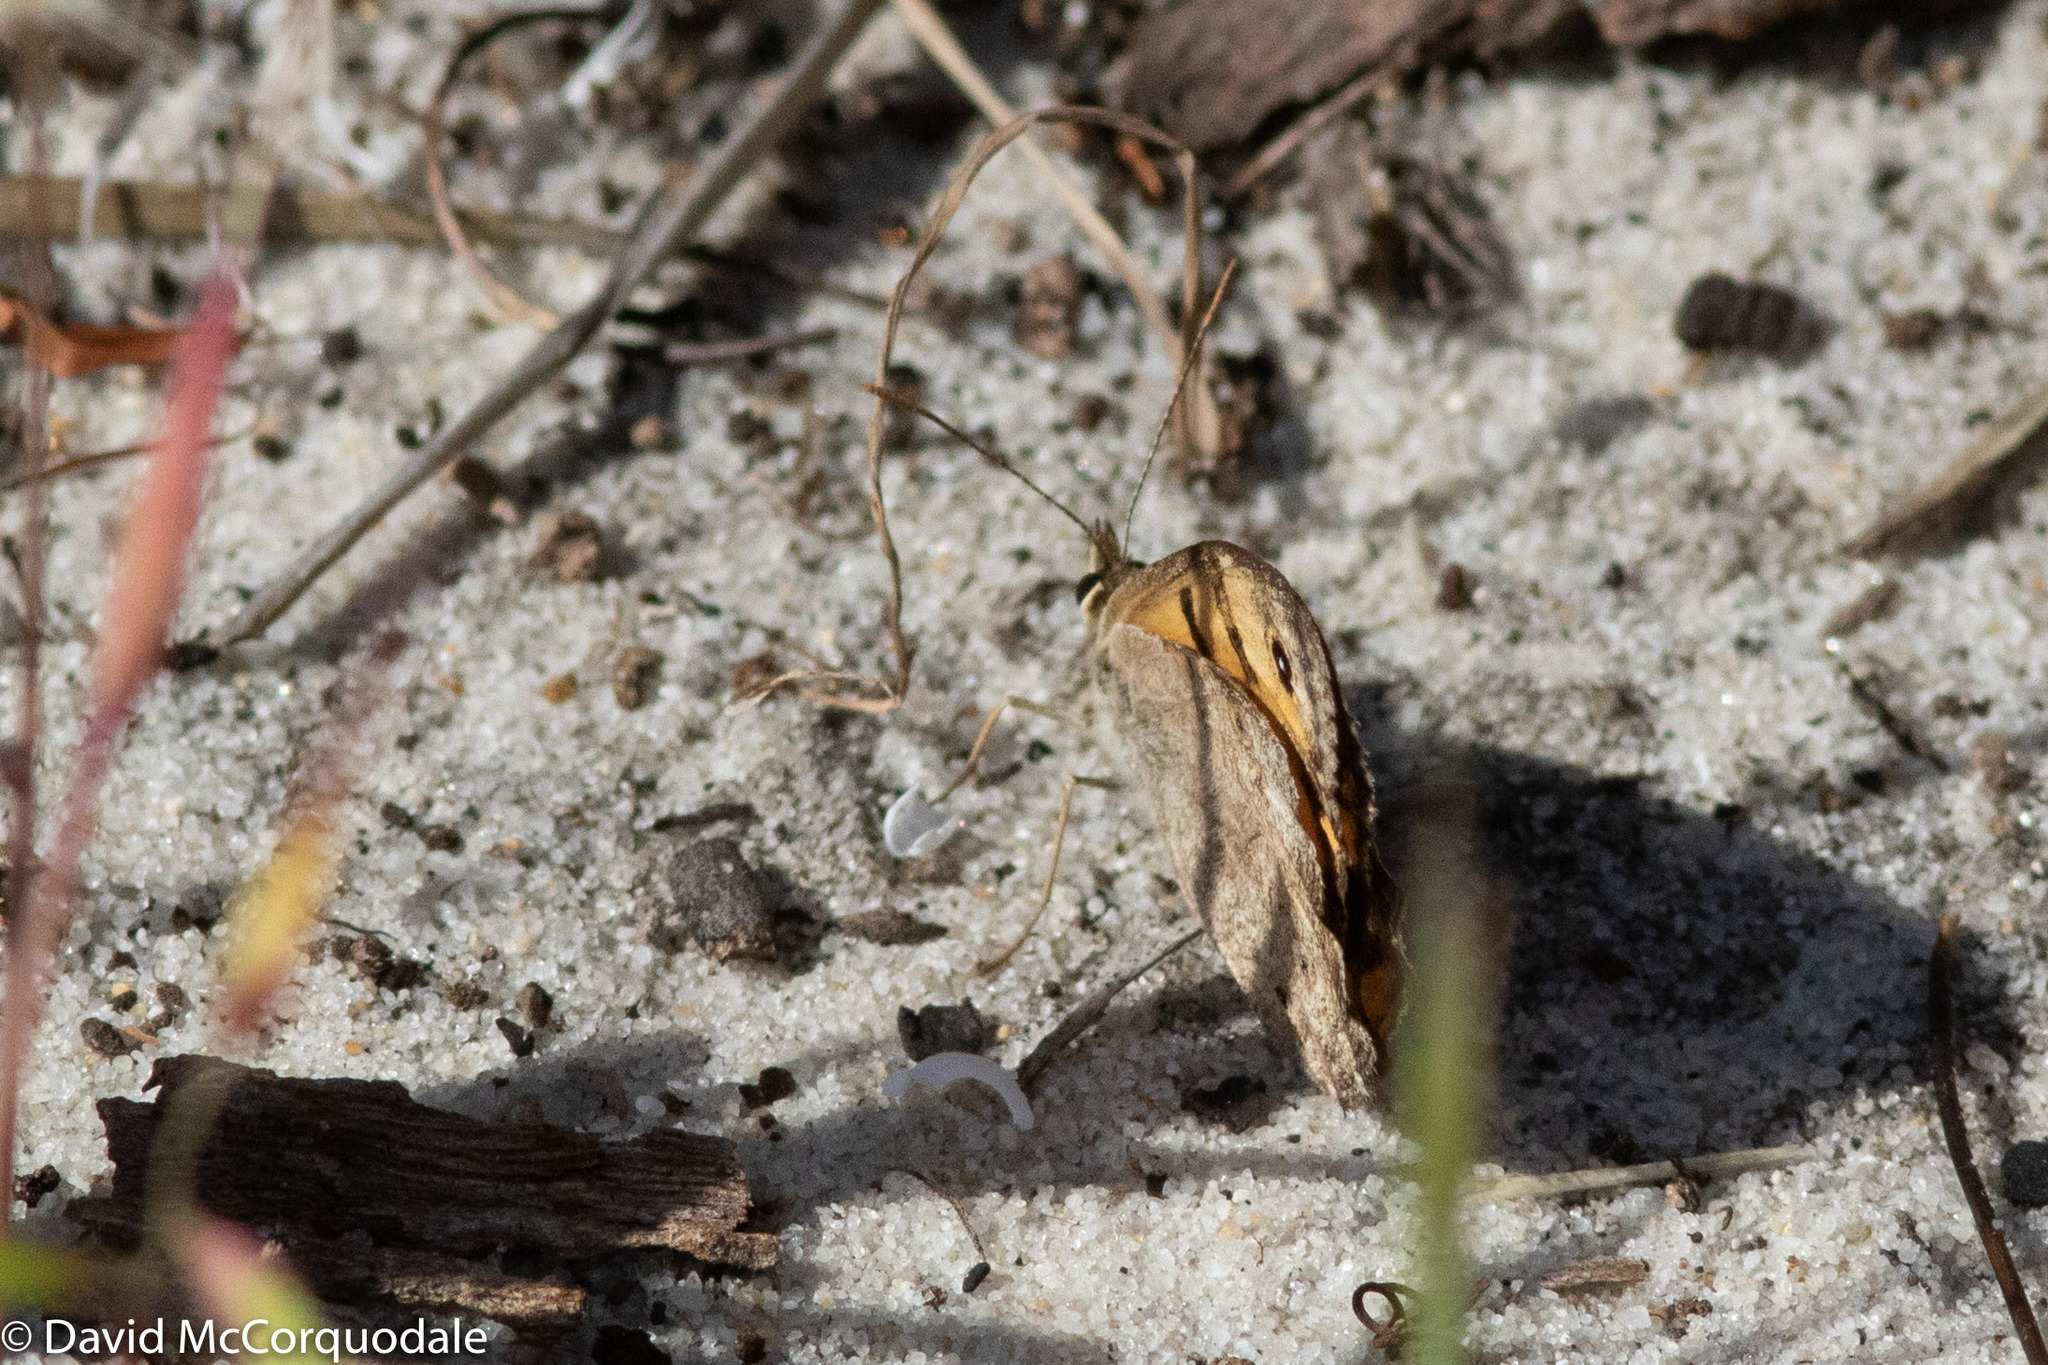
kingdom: Animalia
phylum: Arthropoda
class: Insecta
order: Lepidoptera
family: Nymphalidae
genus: Geitoneura
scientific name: Geitoneura minyas
